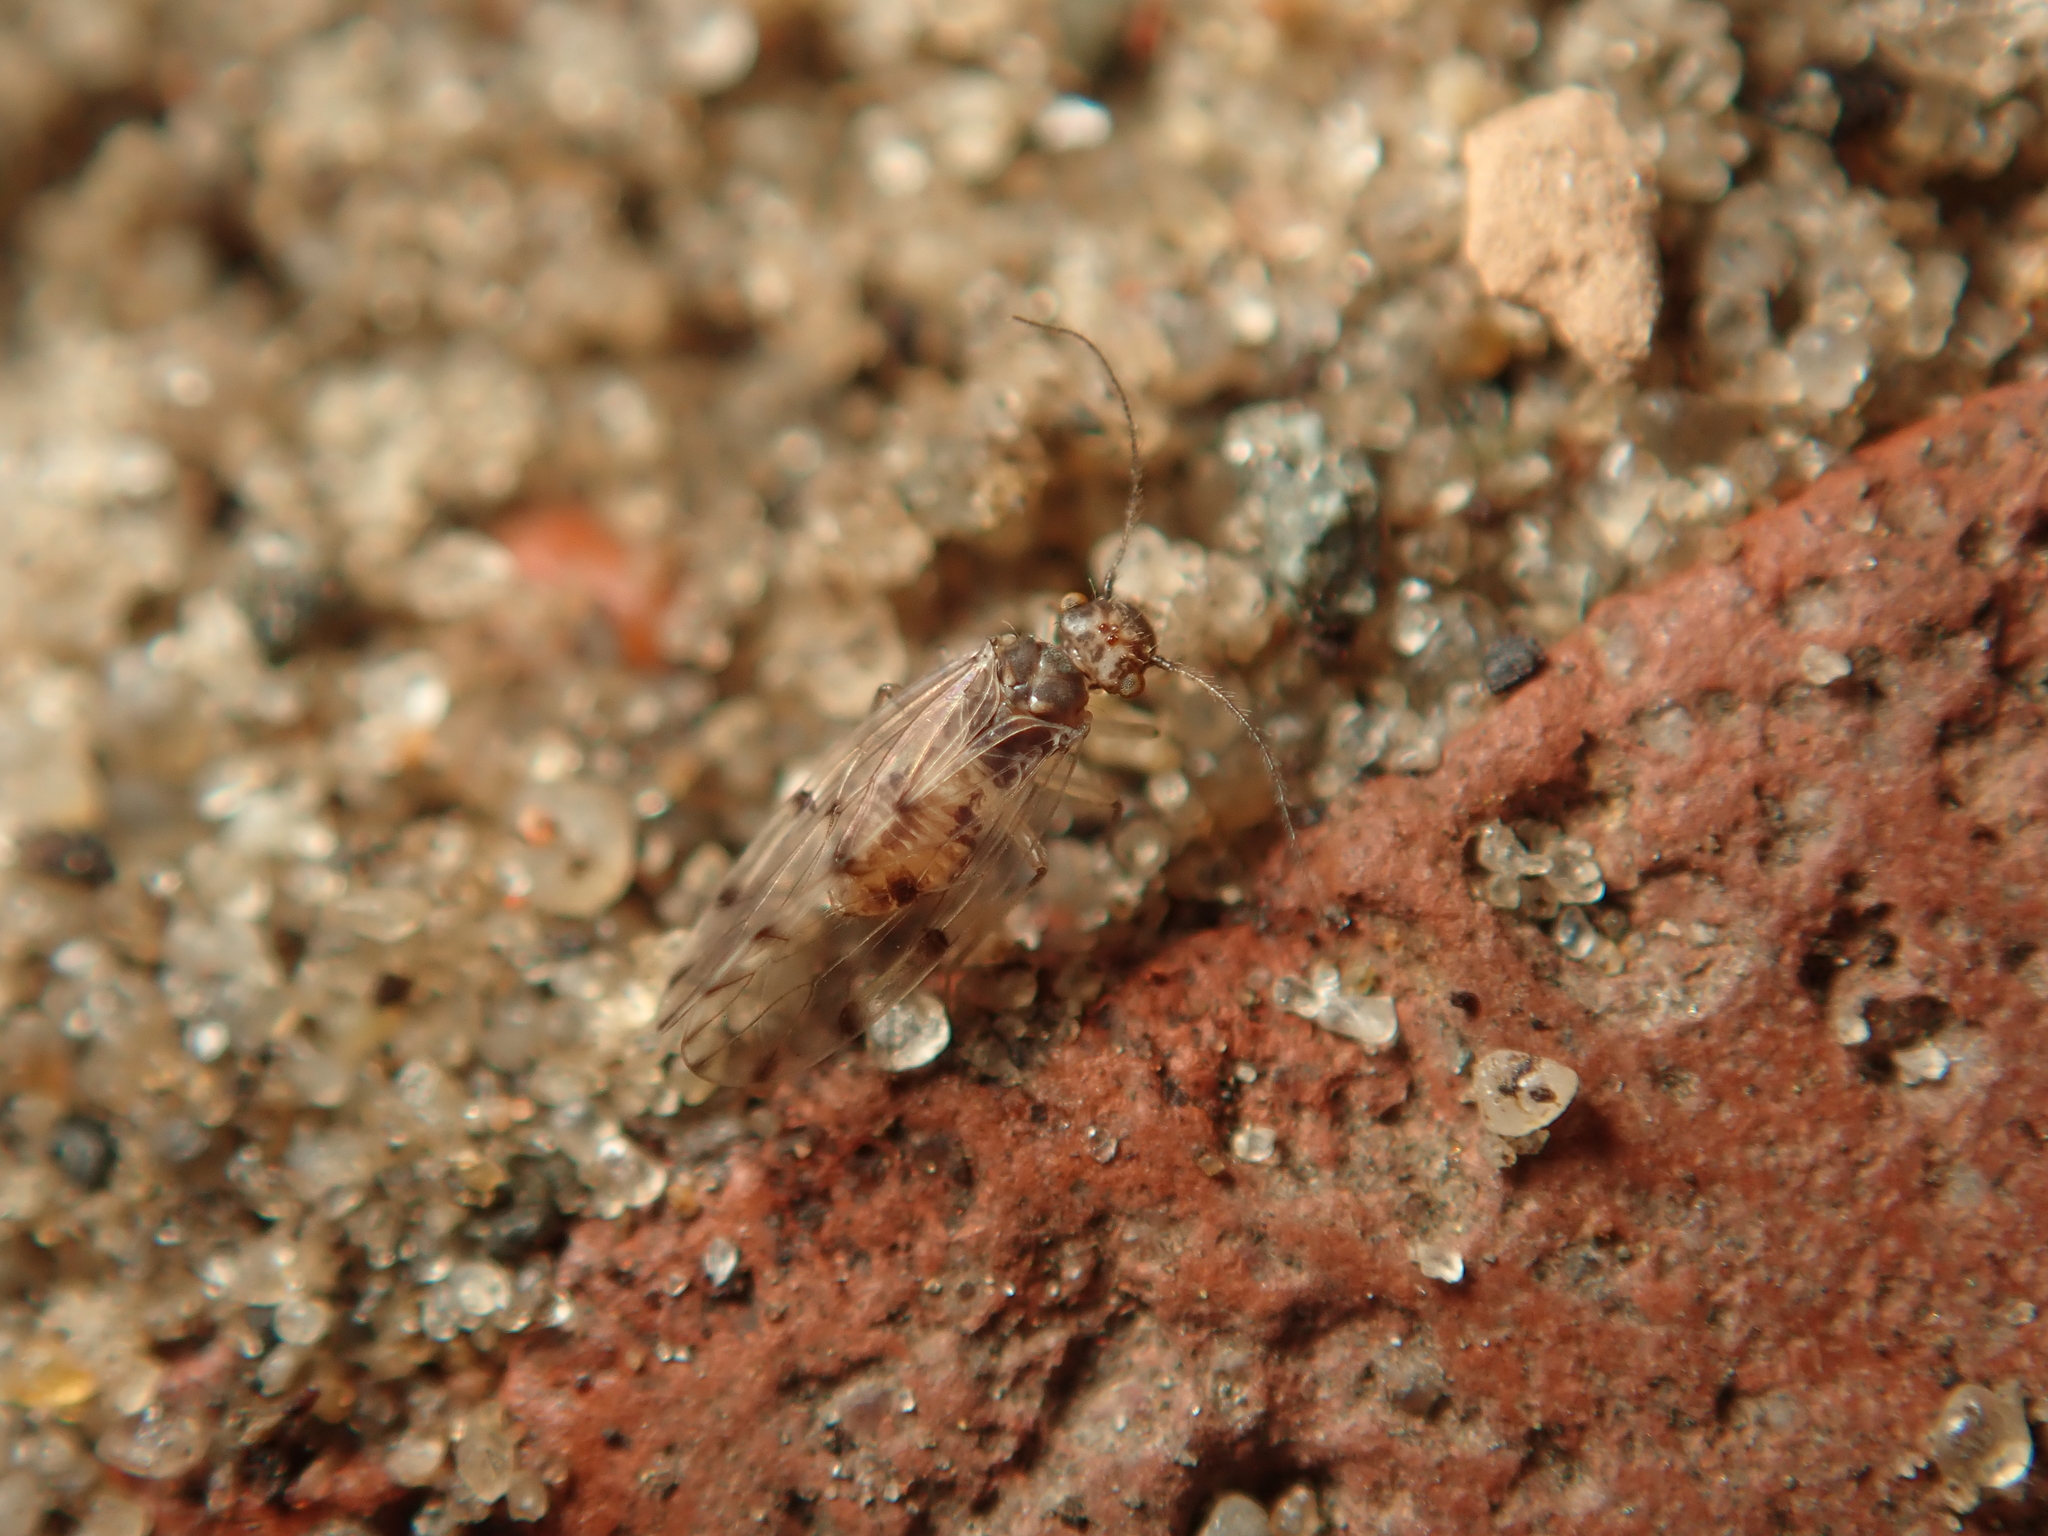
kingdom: Animalia
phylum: Arthropoda
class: Insecta
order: Psocodea
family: Ectopsocidae
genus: Ectopsocus
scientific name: Ectopsocus petersi
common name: Medium-sized bark louse
